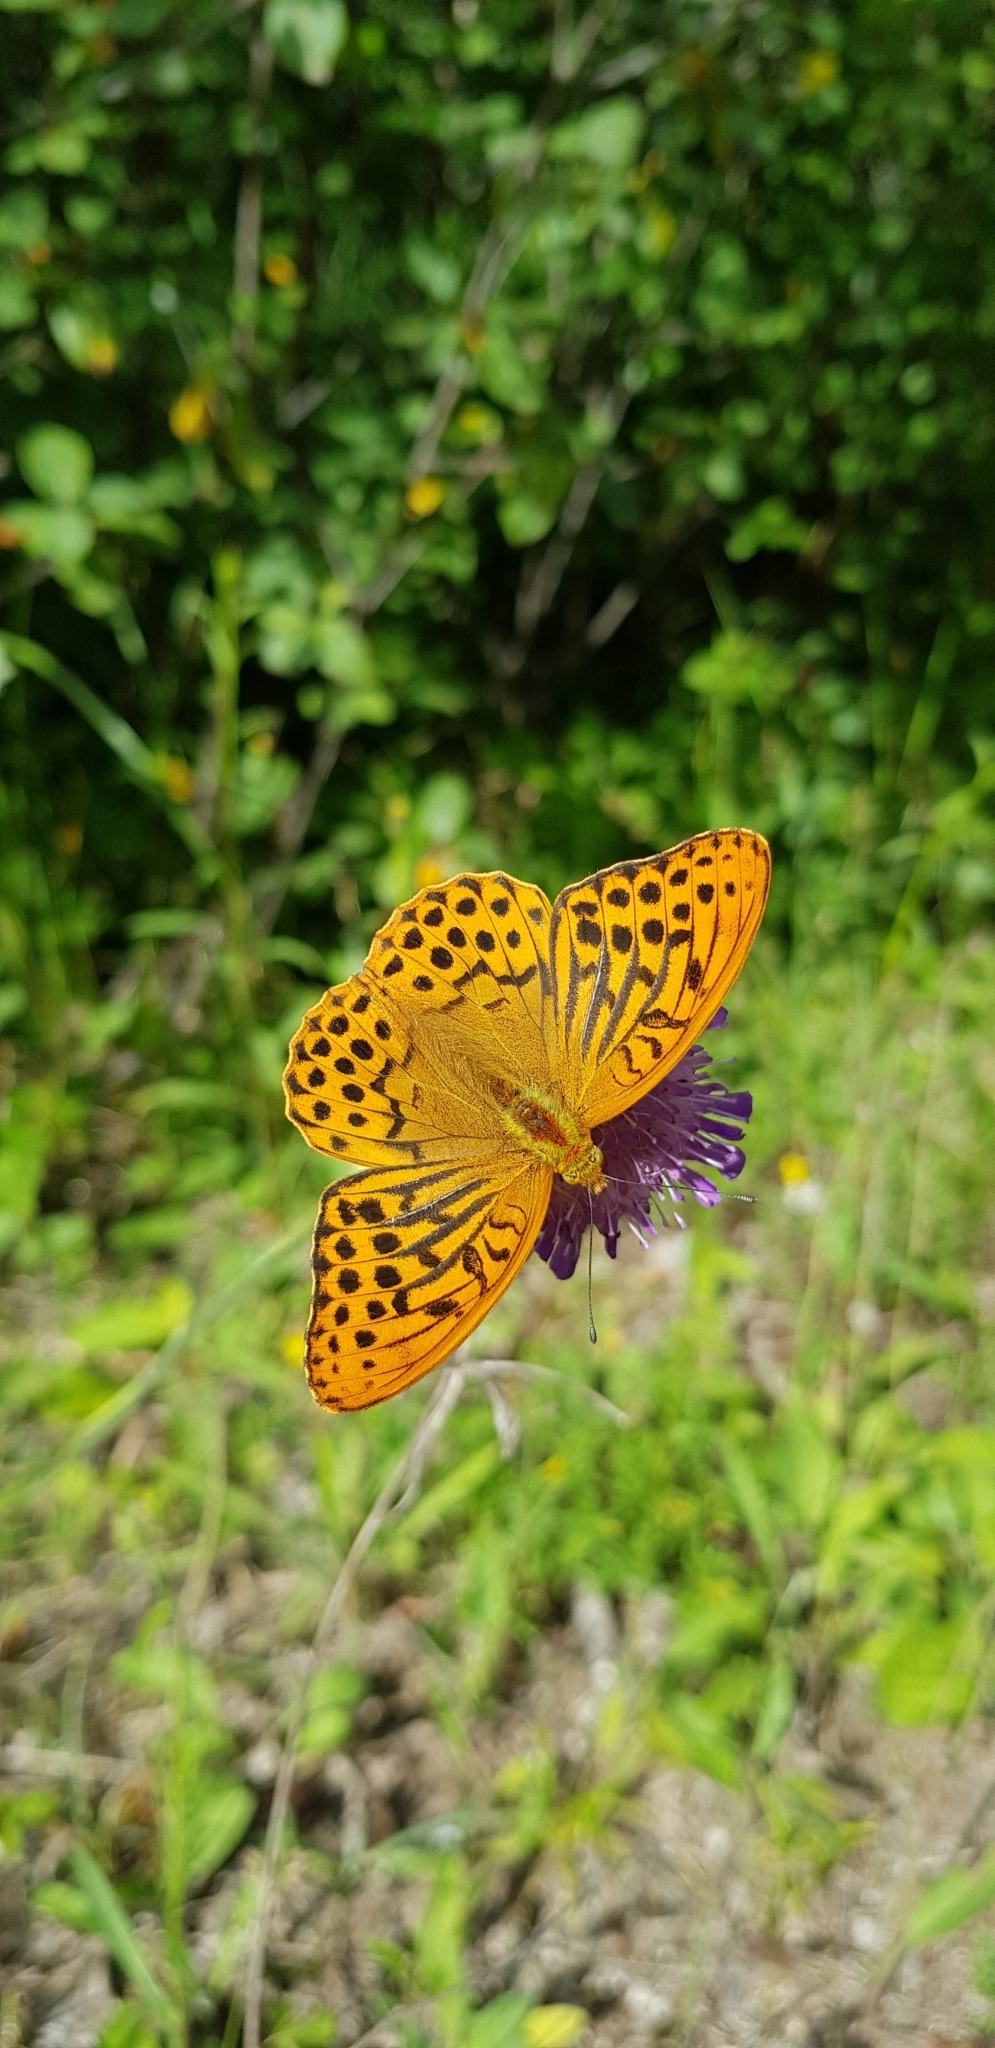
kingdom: Animalia
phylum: Arthropoda
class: Insecta
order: Lepidoptera
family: Nymphalidae
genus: Argynnis
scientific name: Argynnis paphia
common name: Silver-washed fritillary
